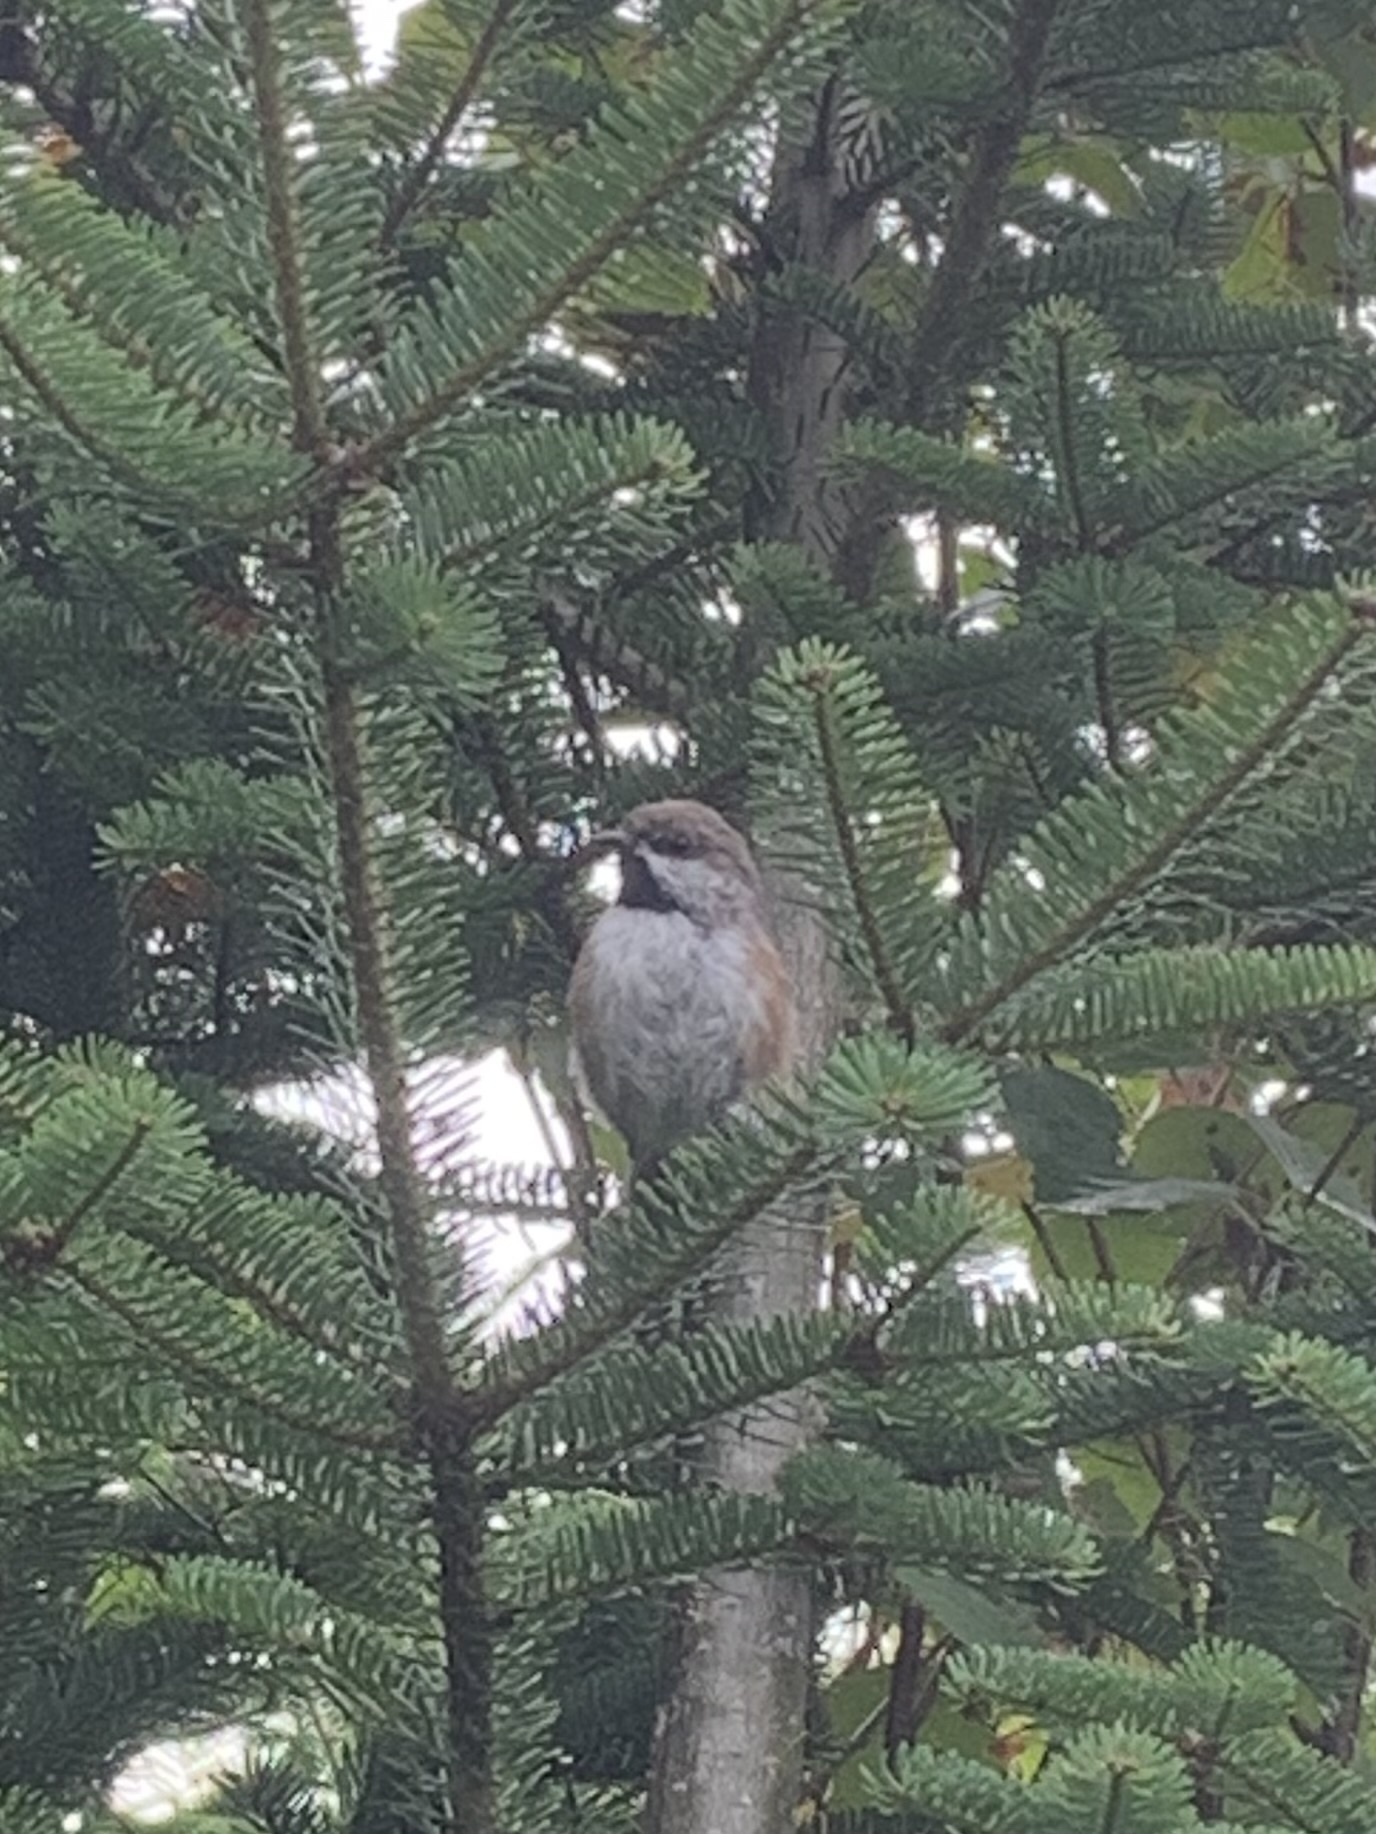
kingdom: Animalia
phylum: Chordata
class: Aves
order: Passeriformes
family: Paridae
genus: Poecile
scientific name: Poecile hudsonicus
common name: Boreal chickadee
